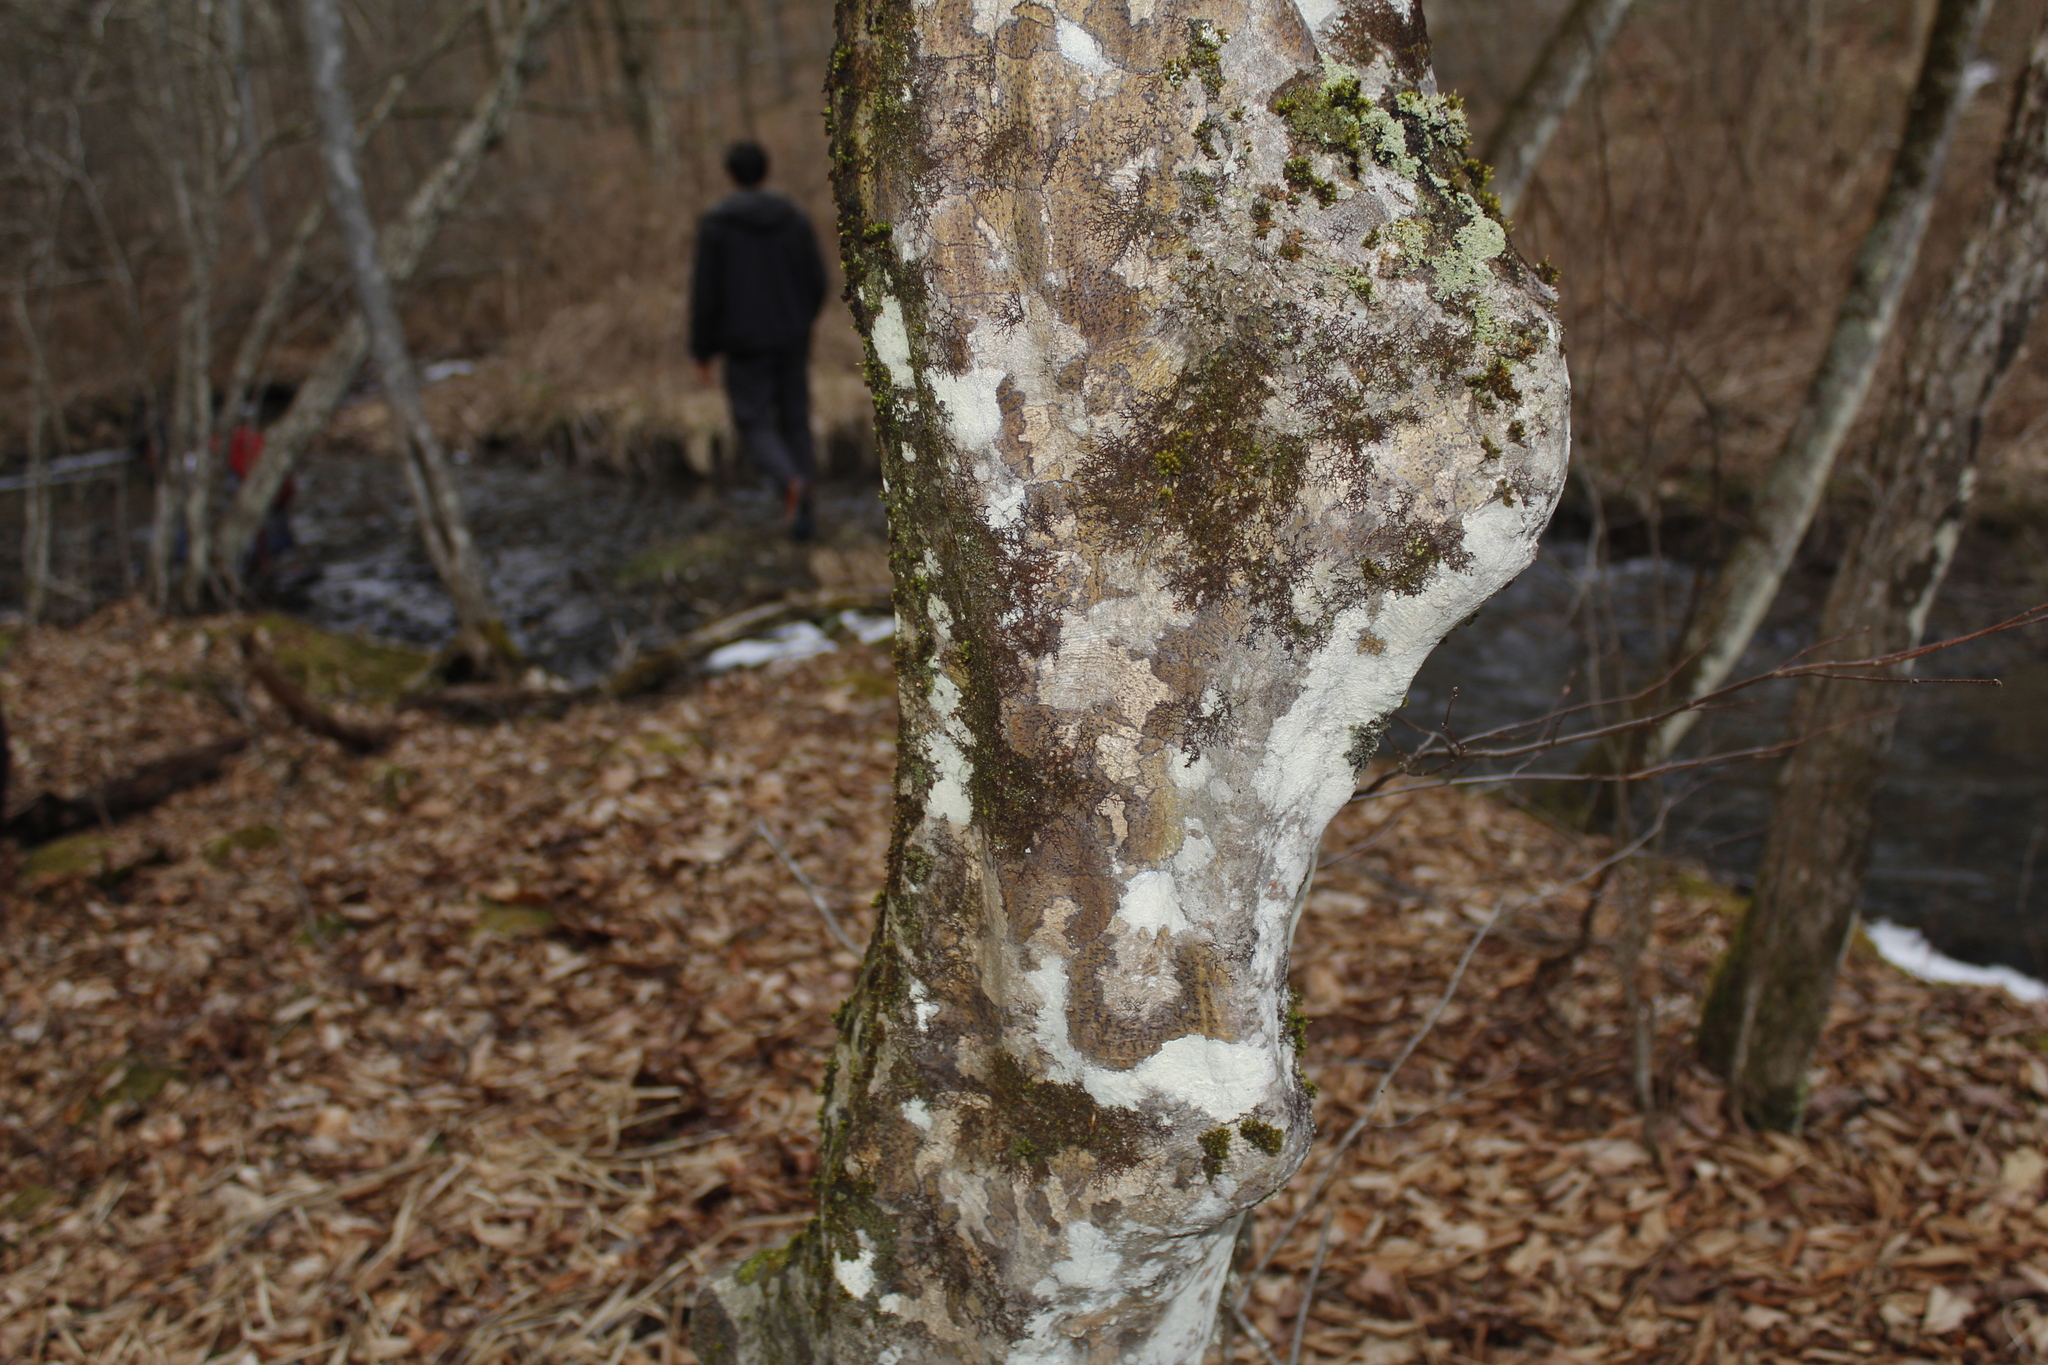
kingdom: Plantae
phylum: Tracheophyta
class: Magnoliopsida
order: Proteales
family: Platanaceae
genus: Platanus
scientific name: Platanus occidentalis
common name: American sycamore
